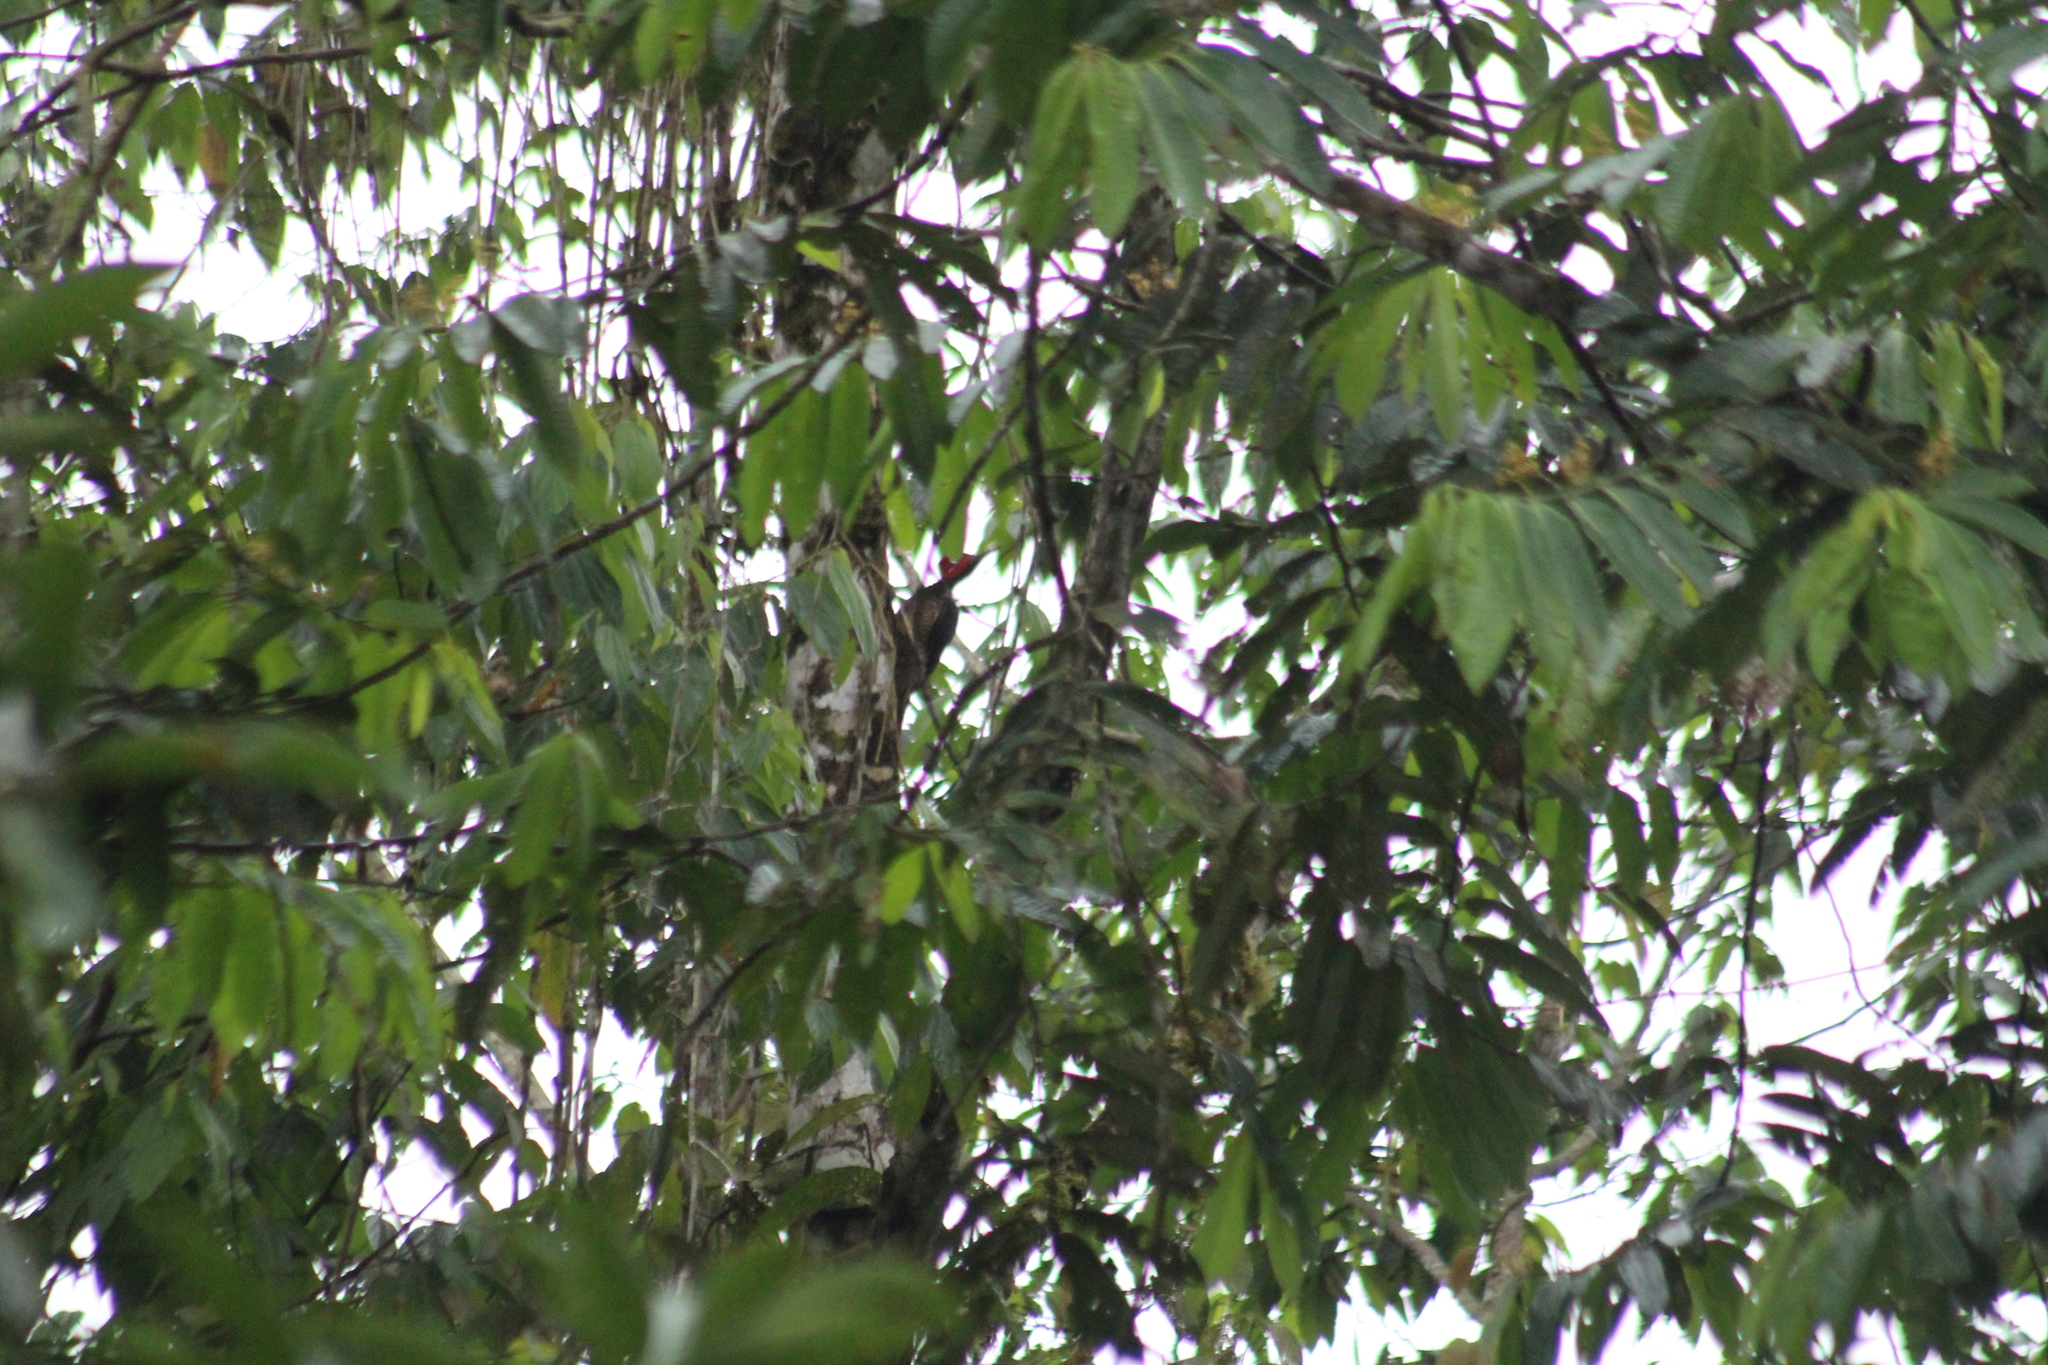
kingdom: Animalia
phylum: Chordata
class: Aves
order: Piciformes
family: Picidae
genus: Campephilus
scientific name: Campephilus gayaquilensis
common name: Guayaquil woodpecker
